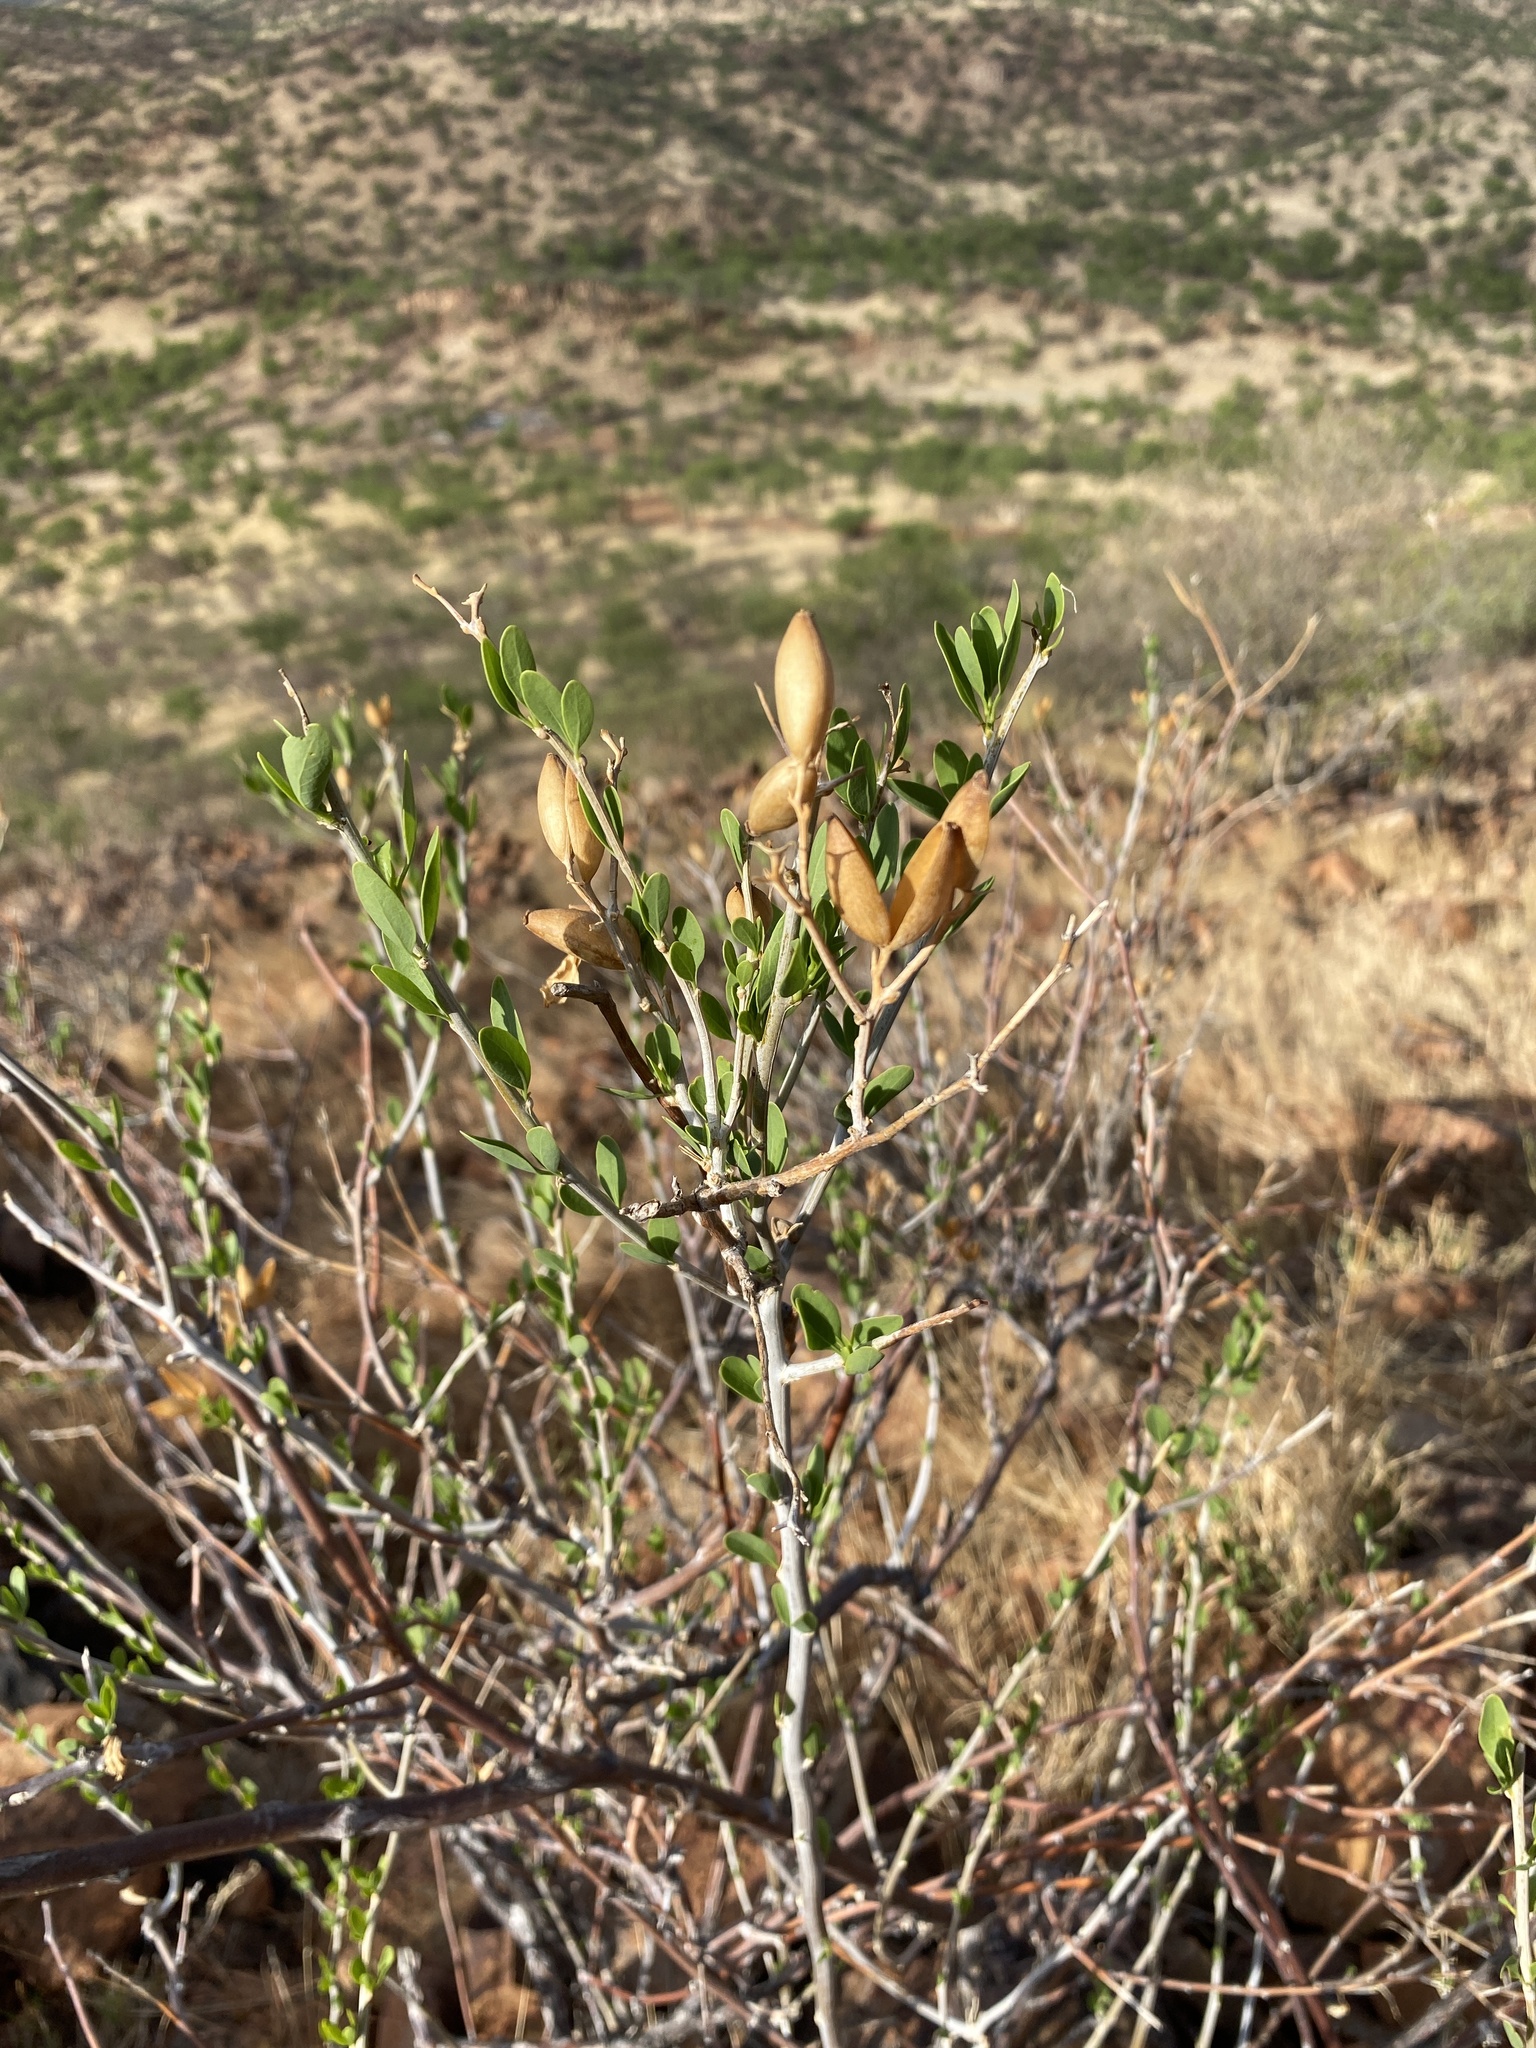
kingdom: Plantae
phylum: Tracheophyta
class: Magnoliopsida
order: Solanales
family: Montiniaceae
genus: Montinia
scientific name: Montinia caryophyllacea
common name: Wild clove-bush
